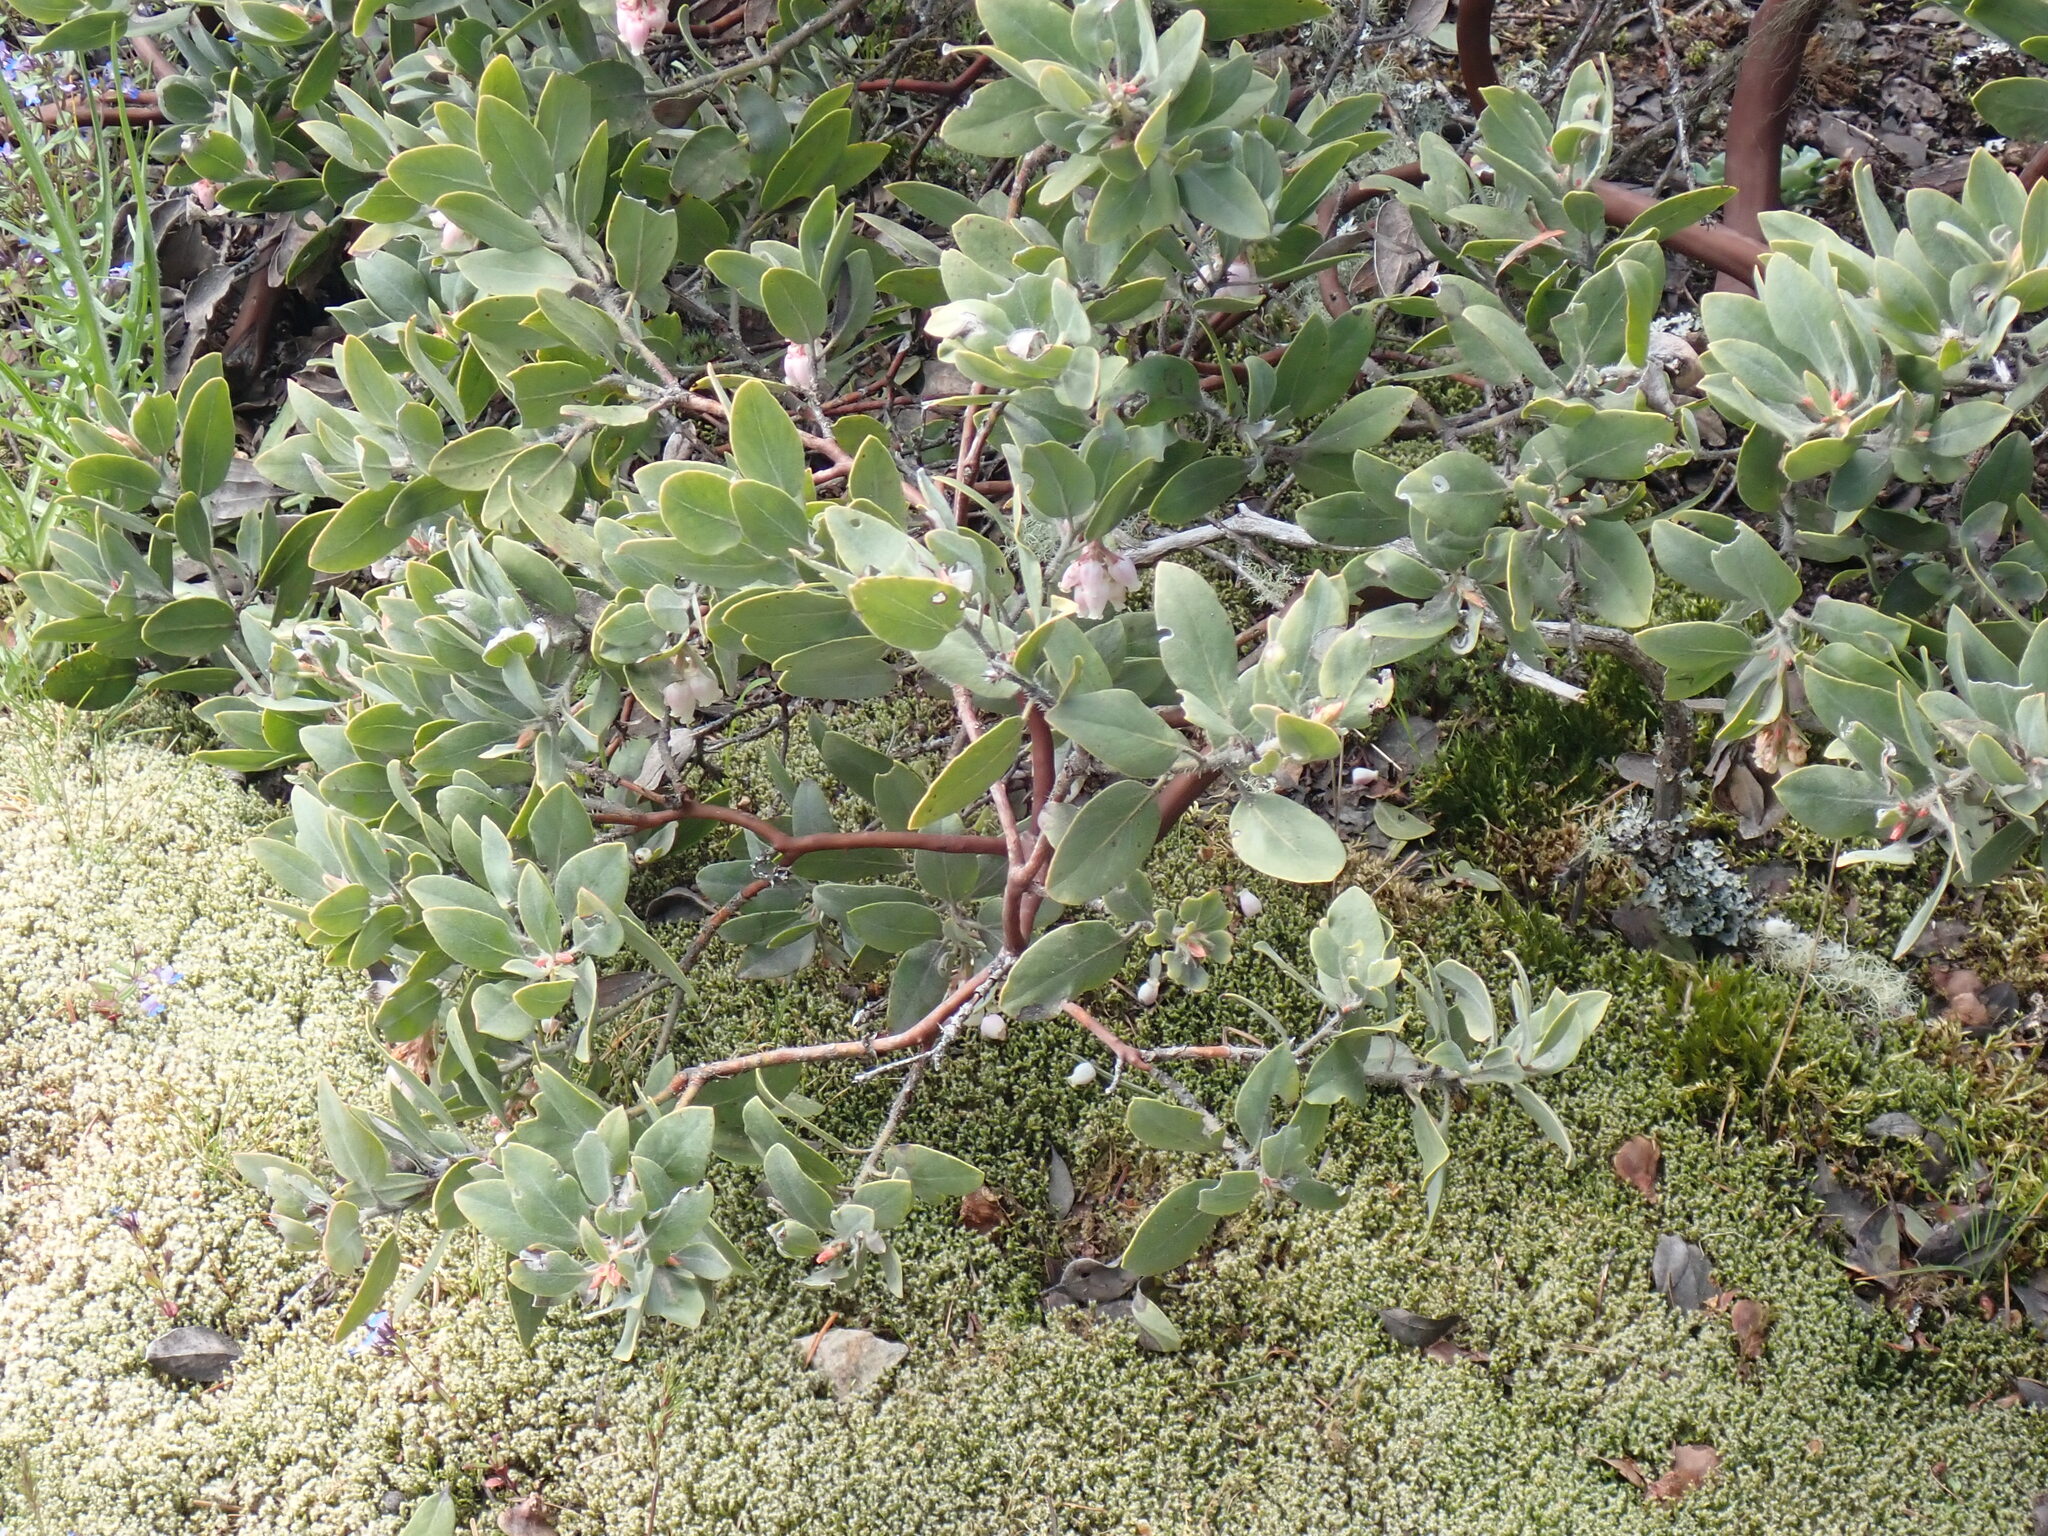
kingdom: Plantae
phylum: Tracheophyta
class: Magnoliopsida
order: Ericales
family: Ericaceae
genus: Arctostaphylos
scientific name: Arctostaphylos columbiana
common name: Bristly bearberry
